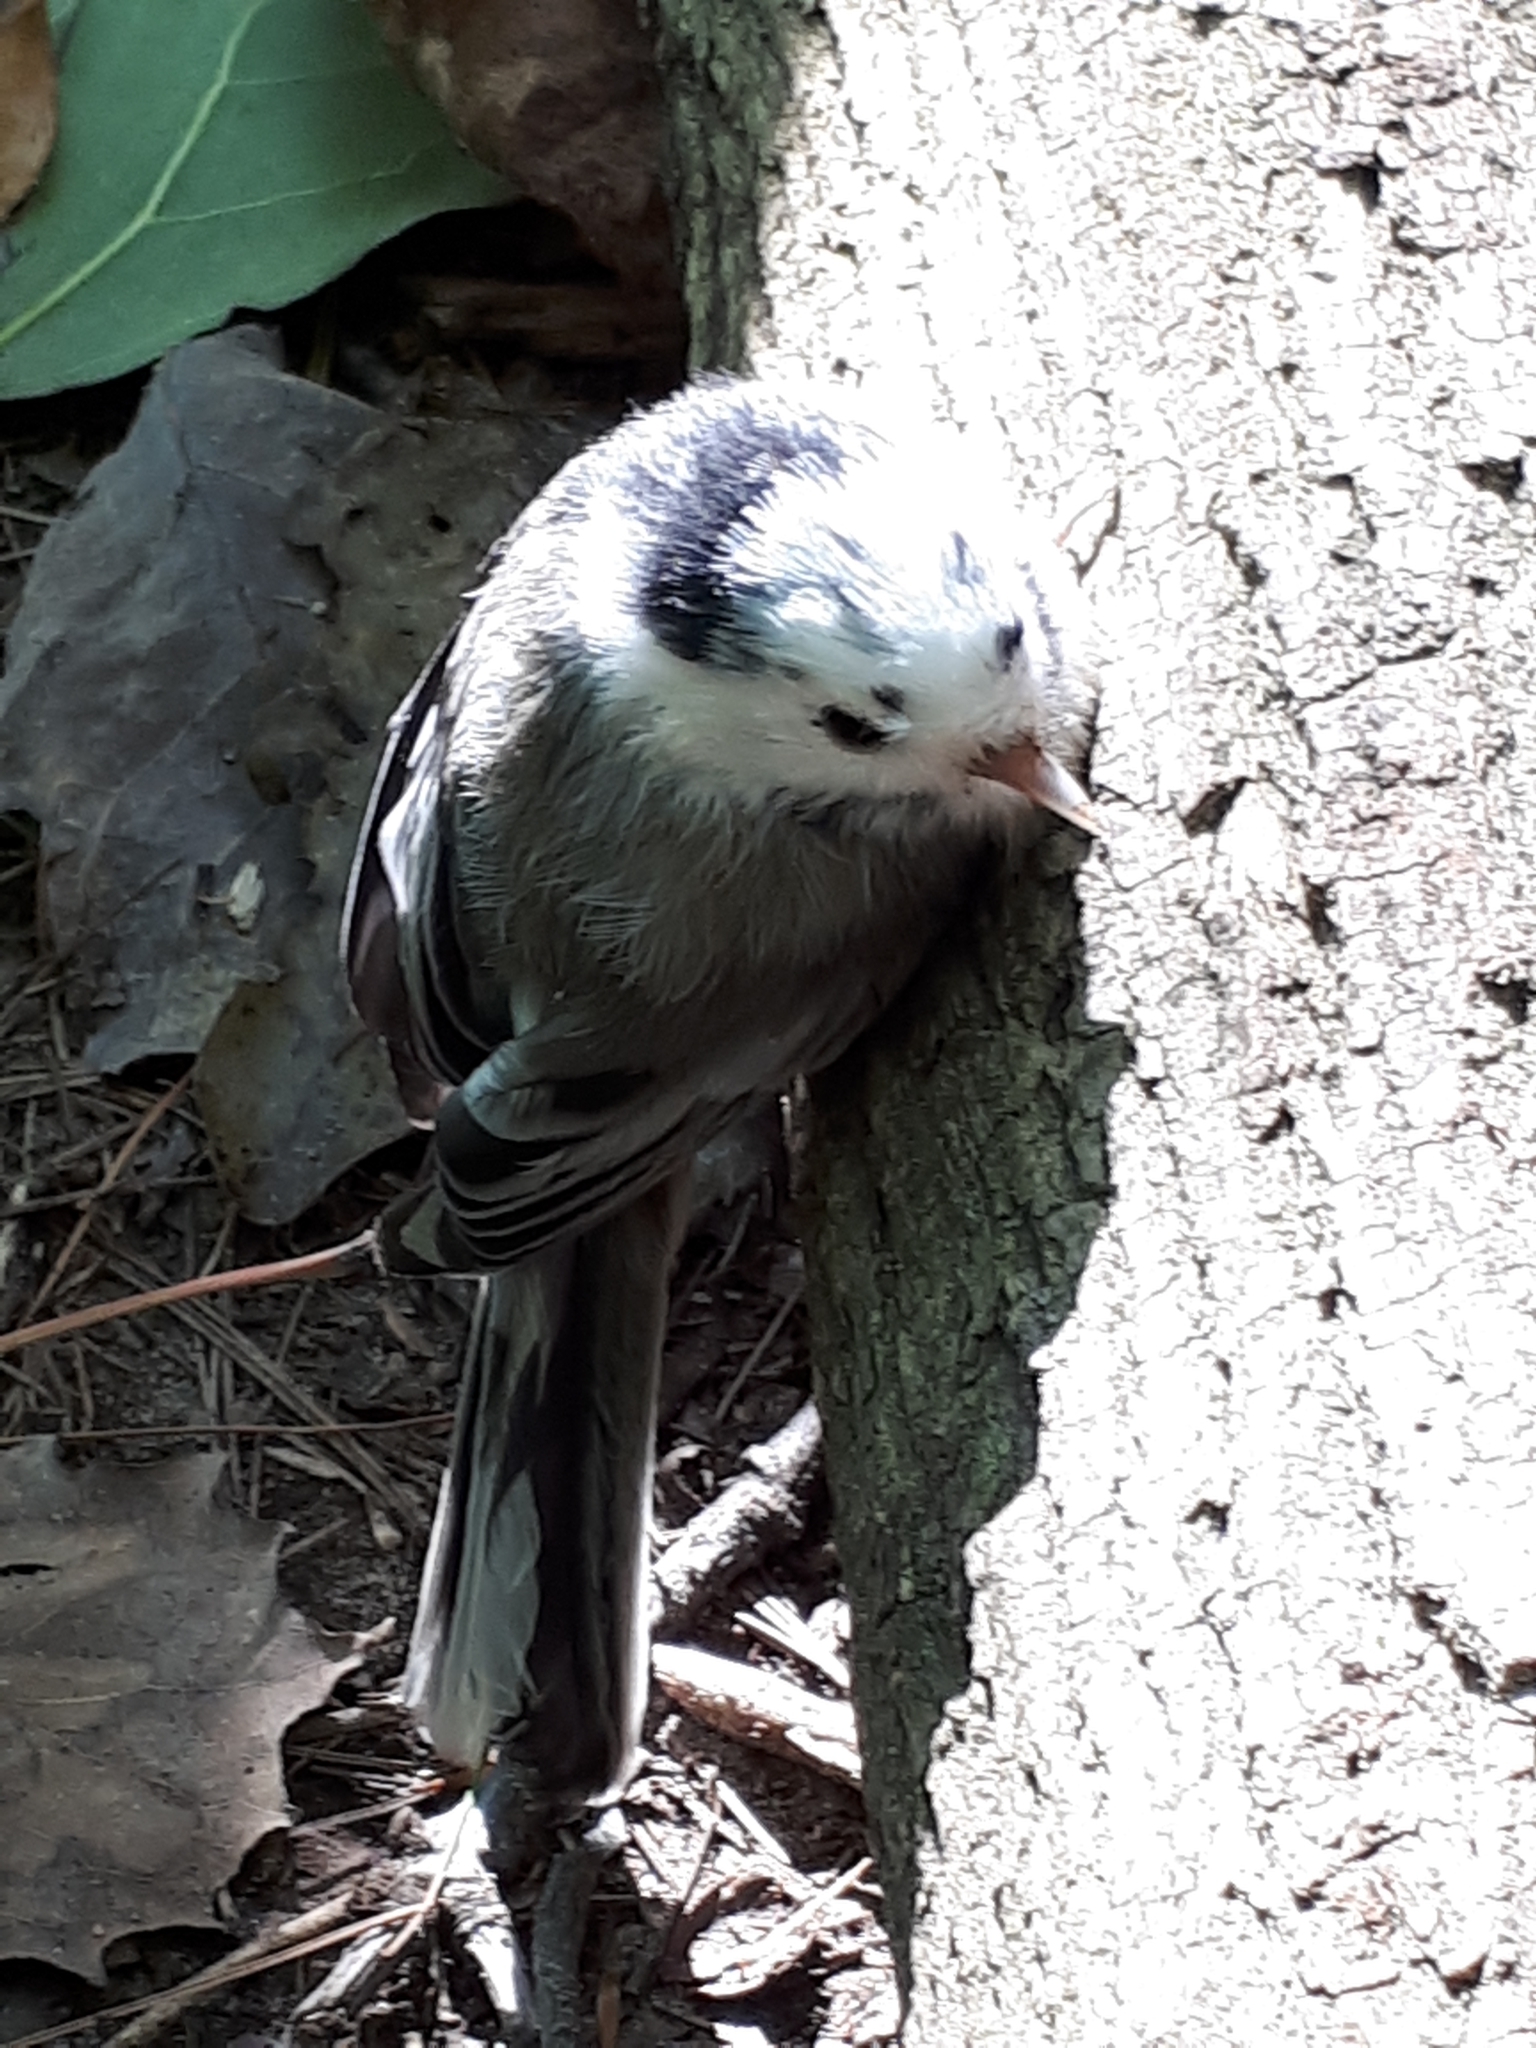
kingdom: Animalia
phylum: Chordata
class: Aves
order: Passeriformes
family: Paridae
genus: Poecile
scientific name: Poecile atricapillus
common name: Black-capped chickadee
